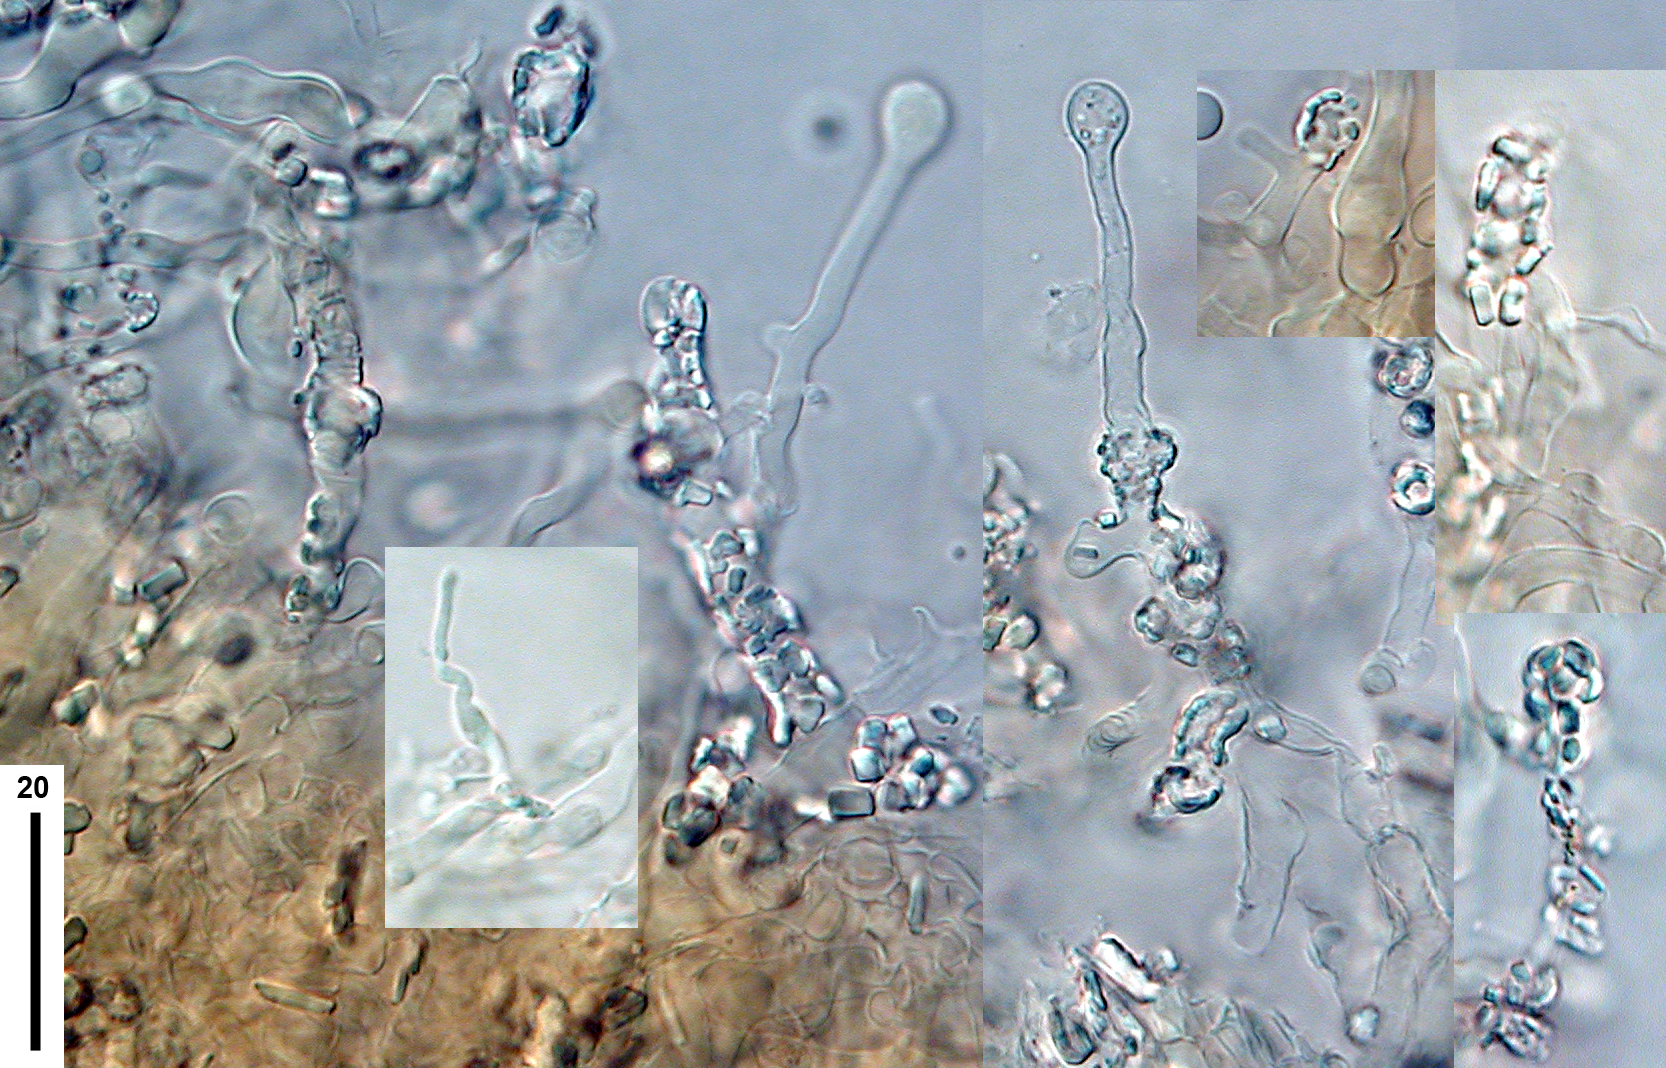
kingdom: Fungi
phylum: Basidiomycota
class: Agaricomycetes
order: Agaricales
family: Tricholomataceae
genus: Cellypha
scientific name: Cellypha goldbachii
